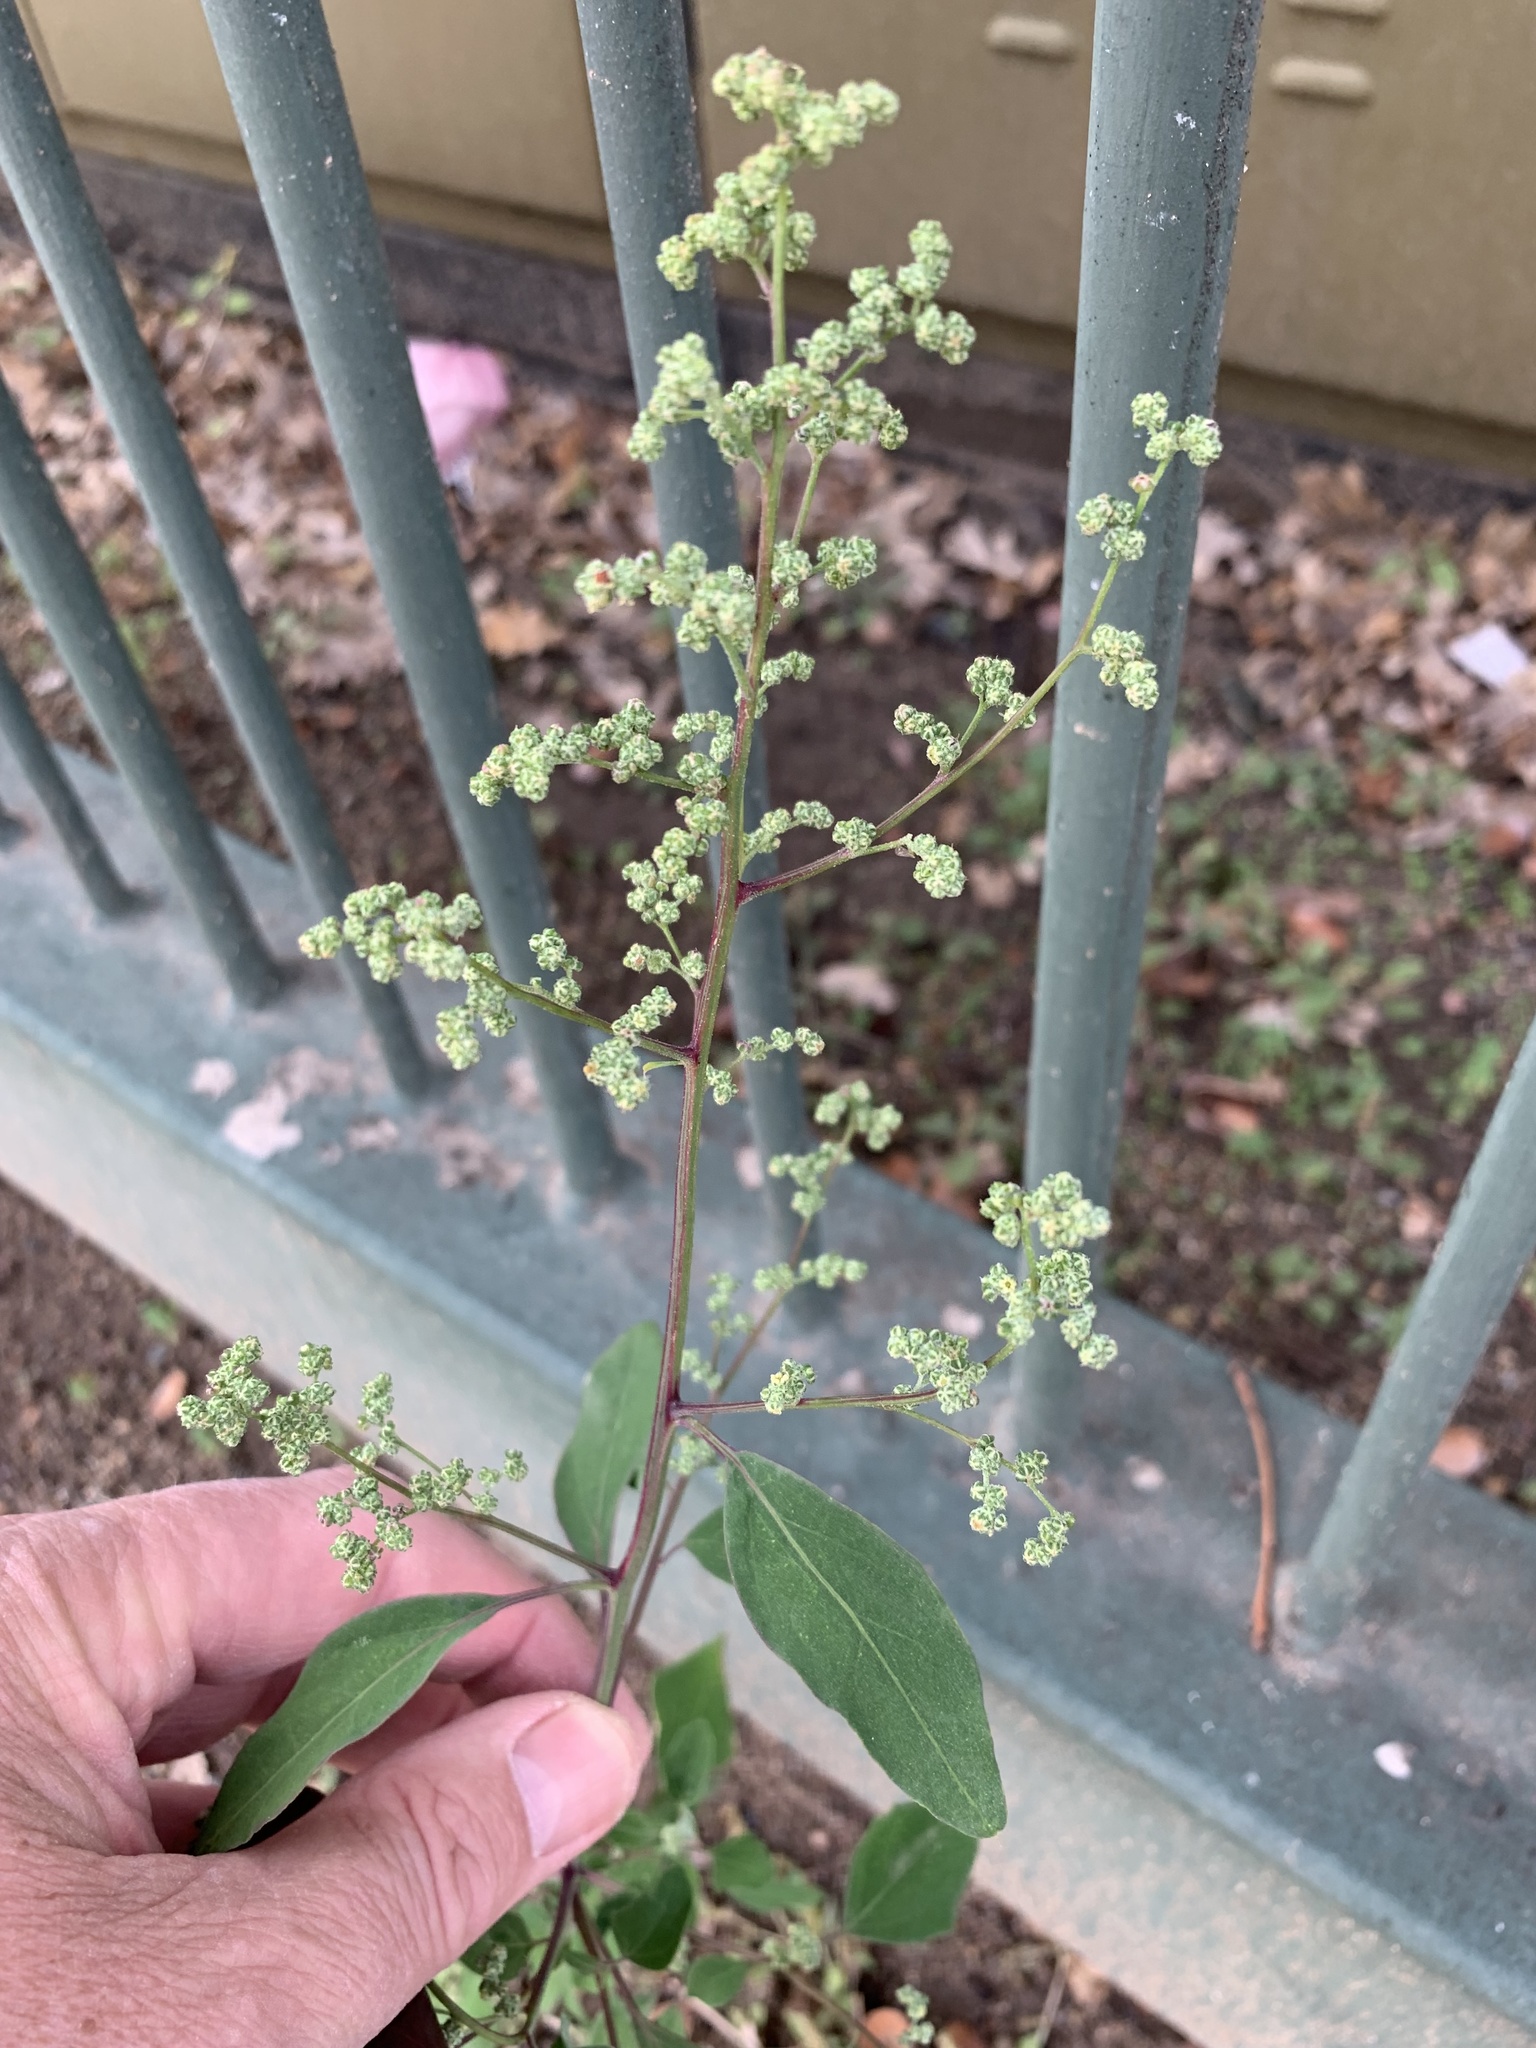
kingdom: Plantae
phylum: Tracheophyta
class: Magnoliopsida
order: Caryophyllales
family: Amaranthaceae
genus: Chenopodium
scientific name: Chenopodium album
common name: Fat-hen
